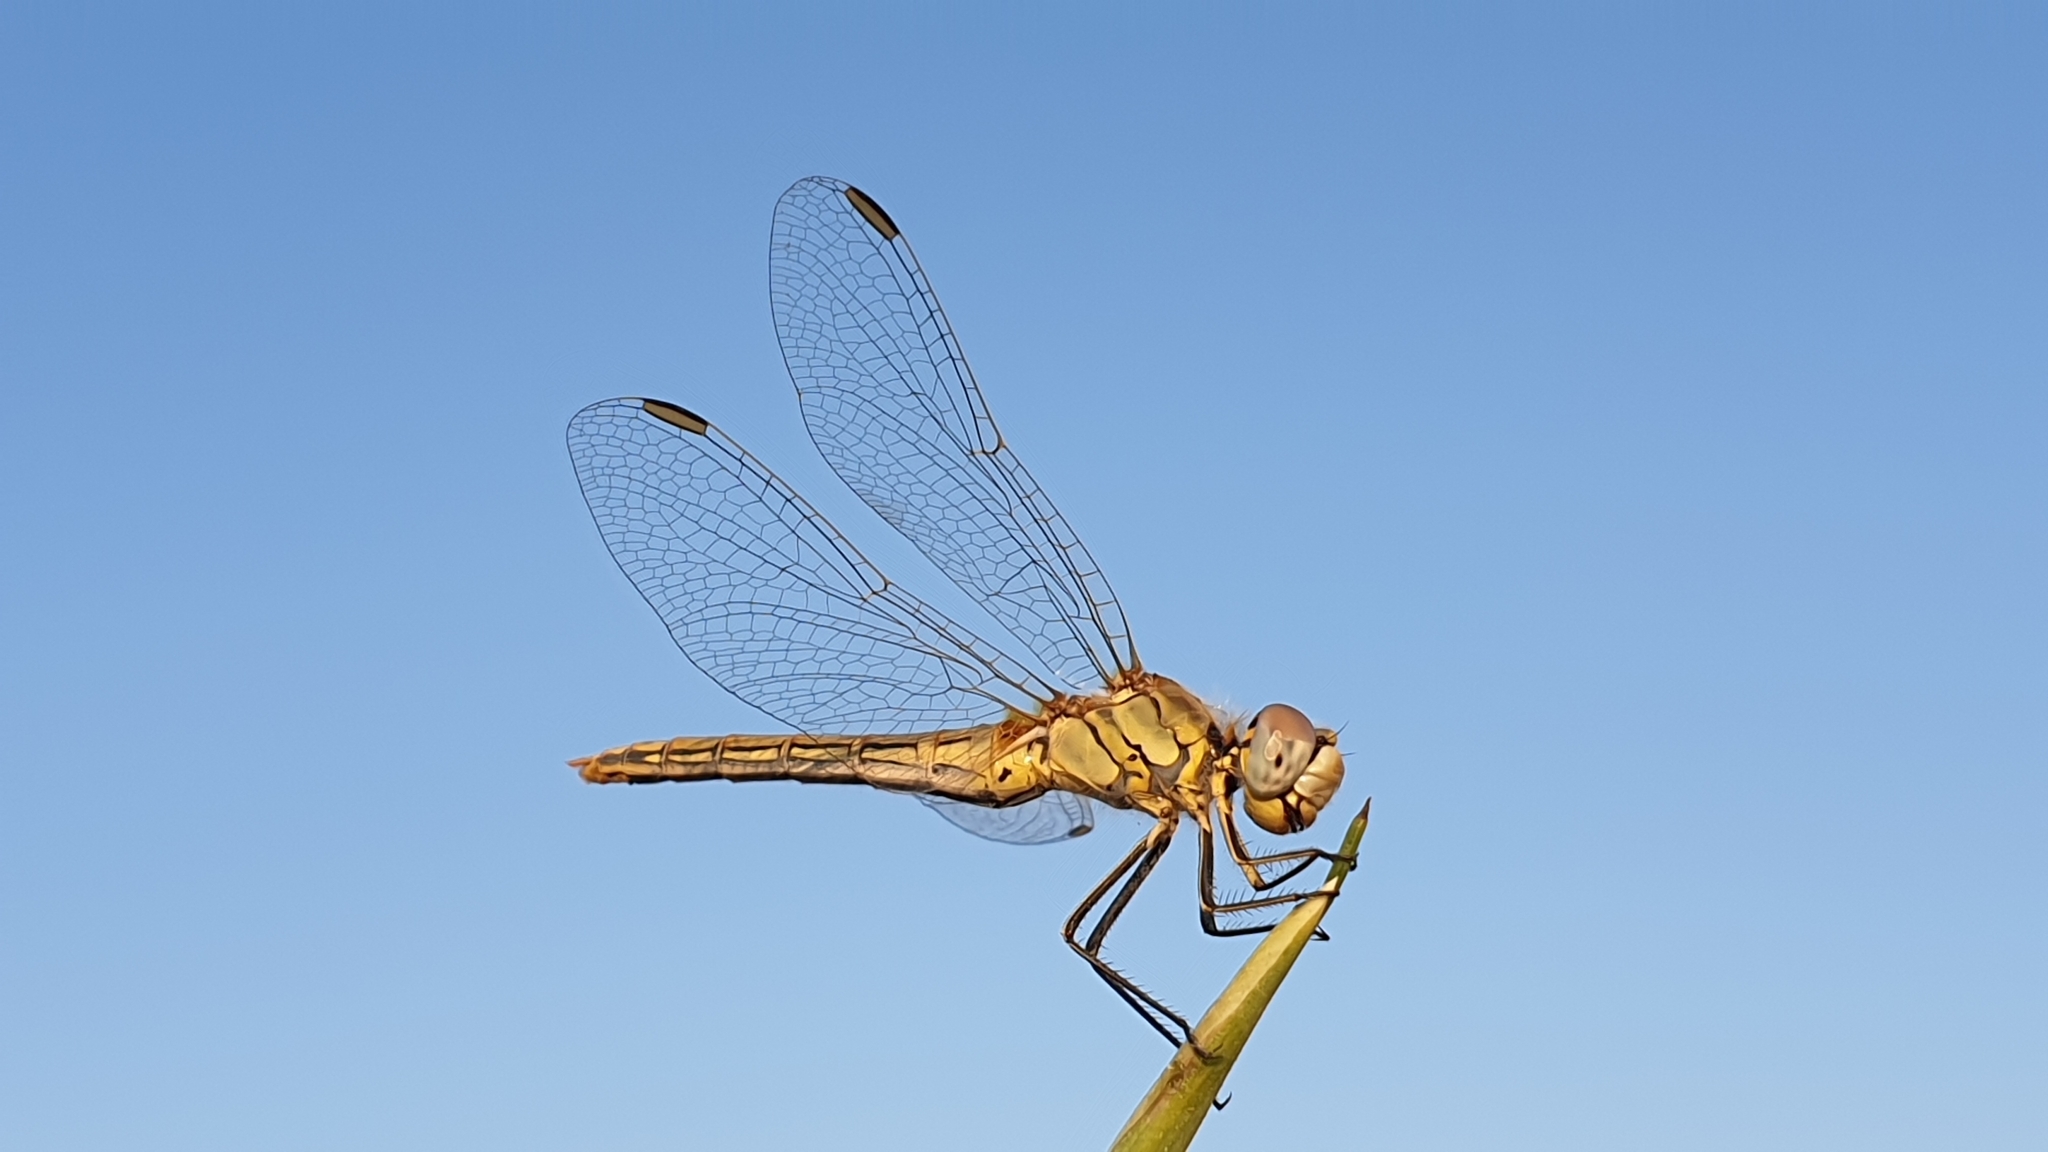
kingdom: Animalia
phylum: Arthropoda
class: Insecta
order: Odonata
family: Libellulidae
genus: Sympetrum
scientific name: Sympetrum fonscolombii
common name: Red-veined darter
